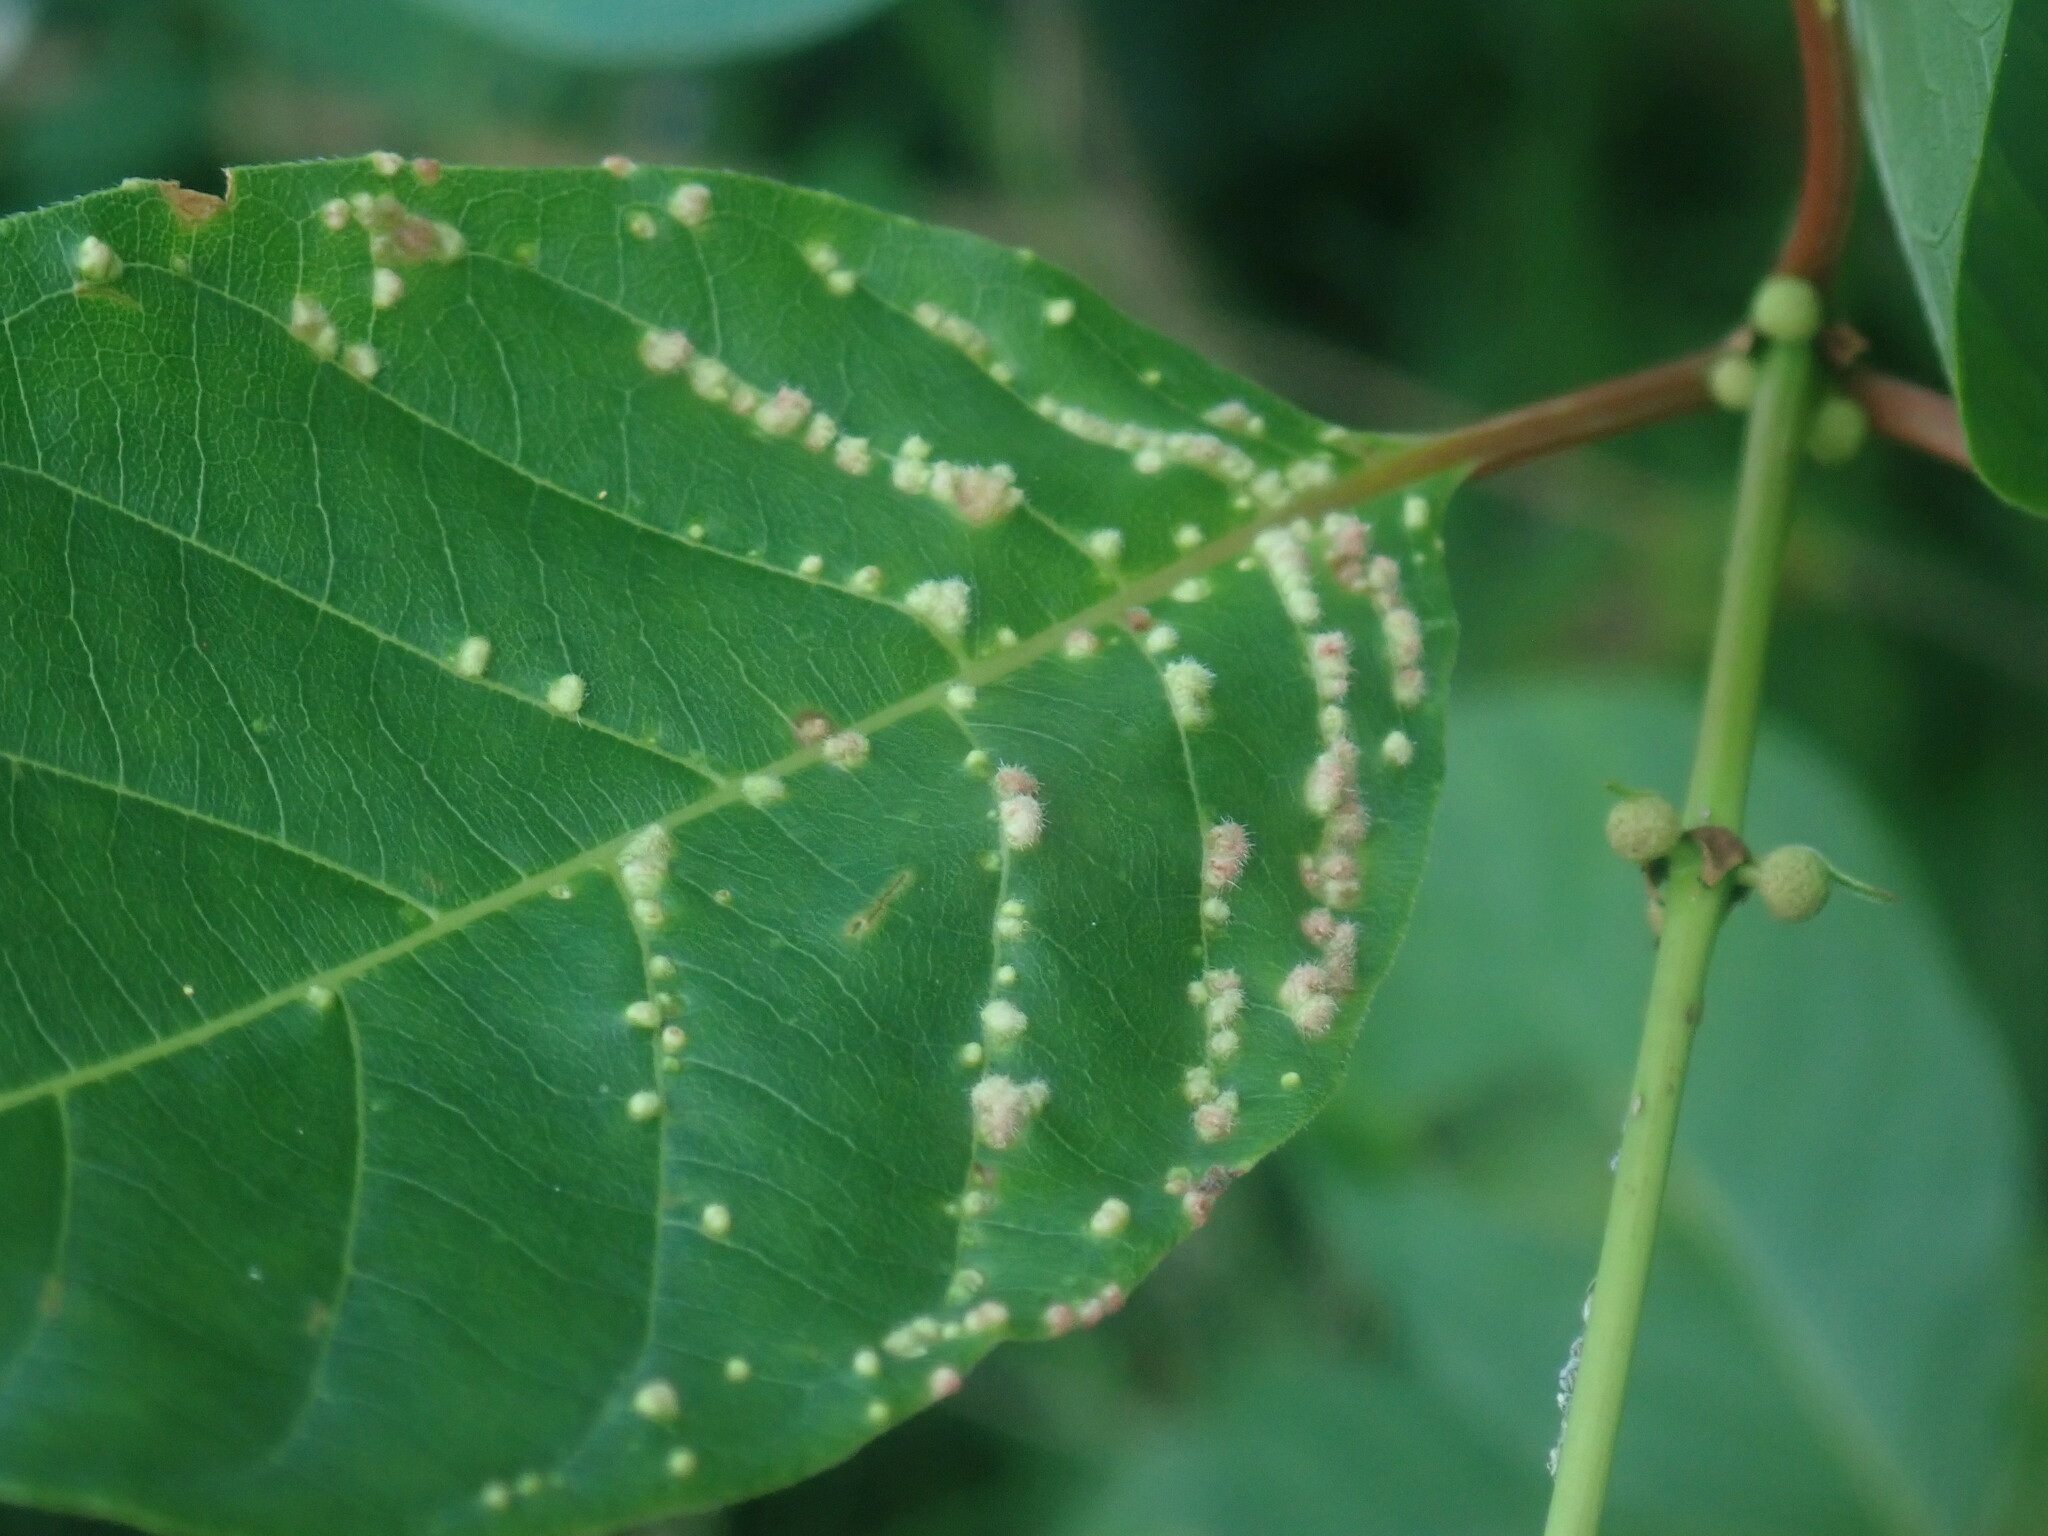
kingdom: Animalia
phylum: Arthropoda
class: Arachnida
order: Trombidiformes
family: Eriophyidae
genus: Aceria
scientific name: Aceria
